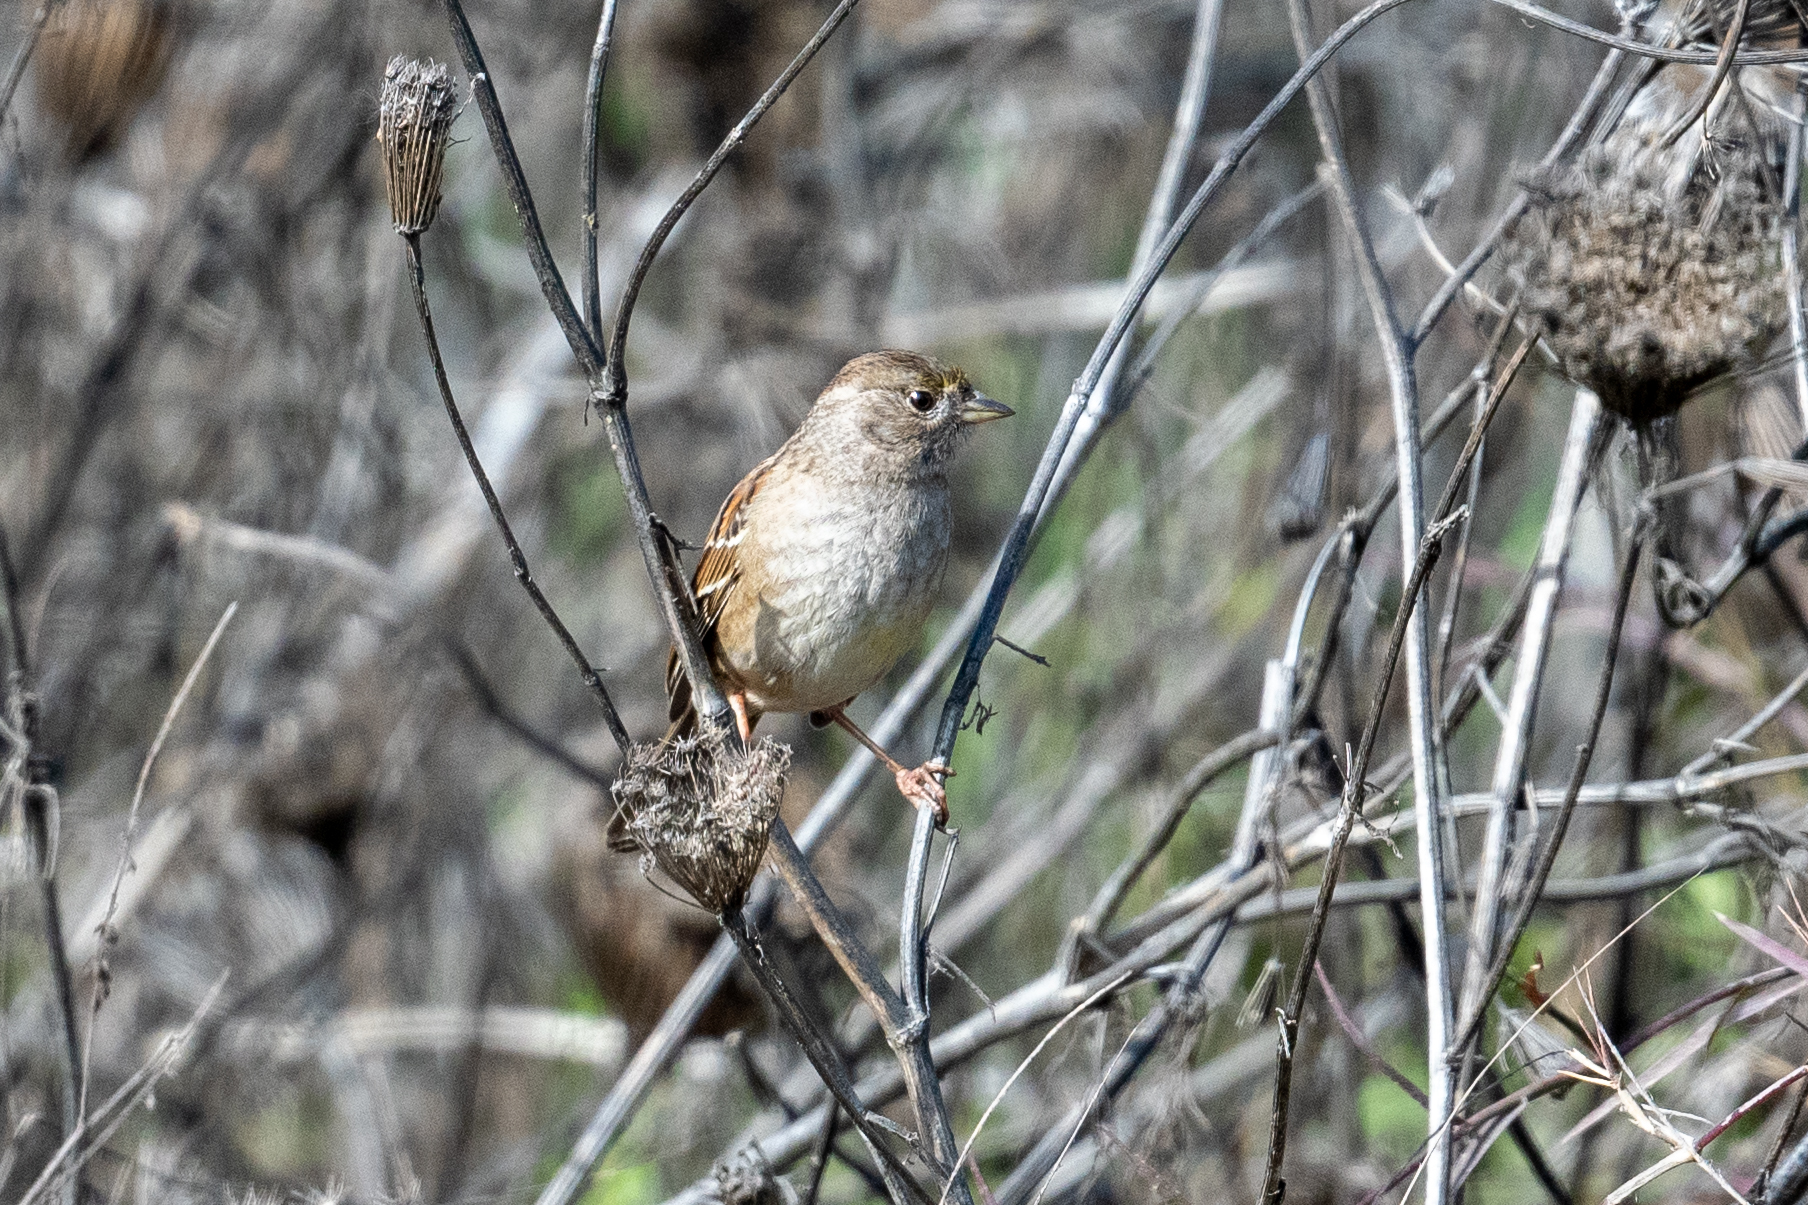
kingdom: Animalia
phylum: Chordata
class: Aves
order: Passeriformes
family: Passerellidae
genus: Zonotrichia
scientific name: Zonotrichia atricapilla
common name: Golden-crowned sparrow
